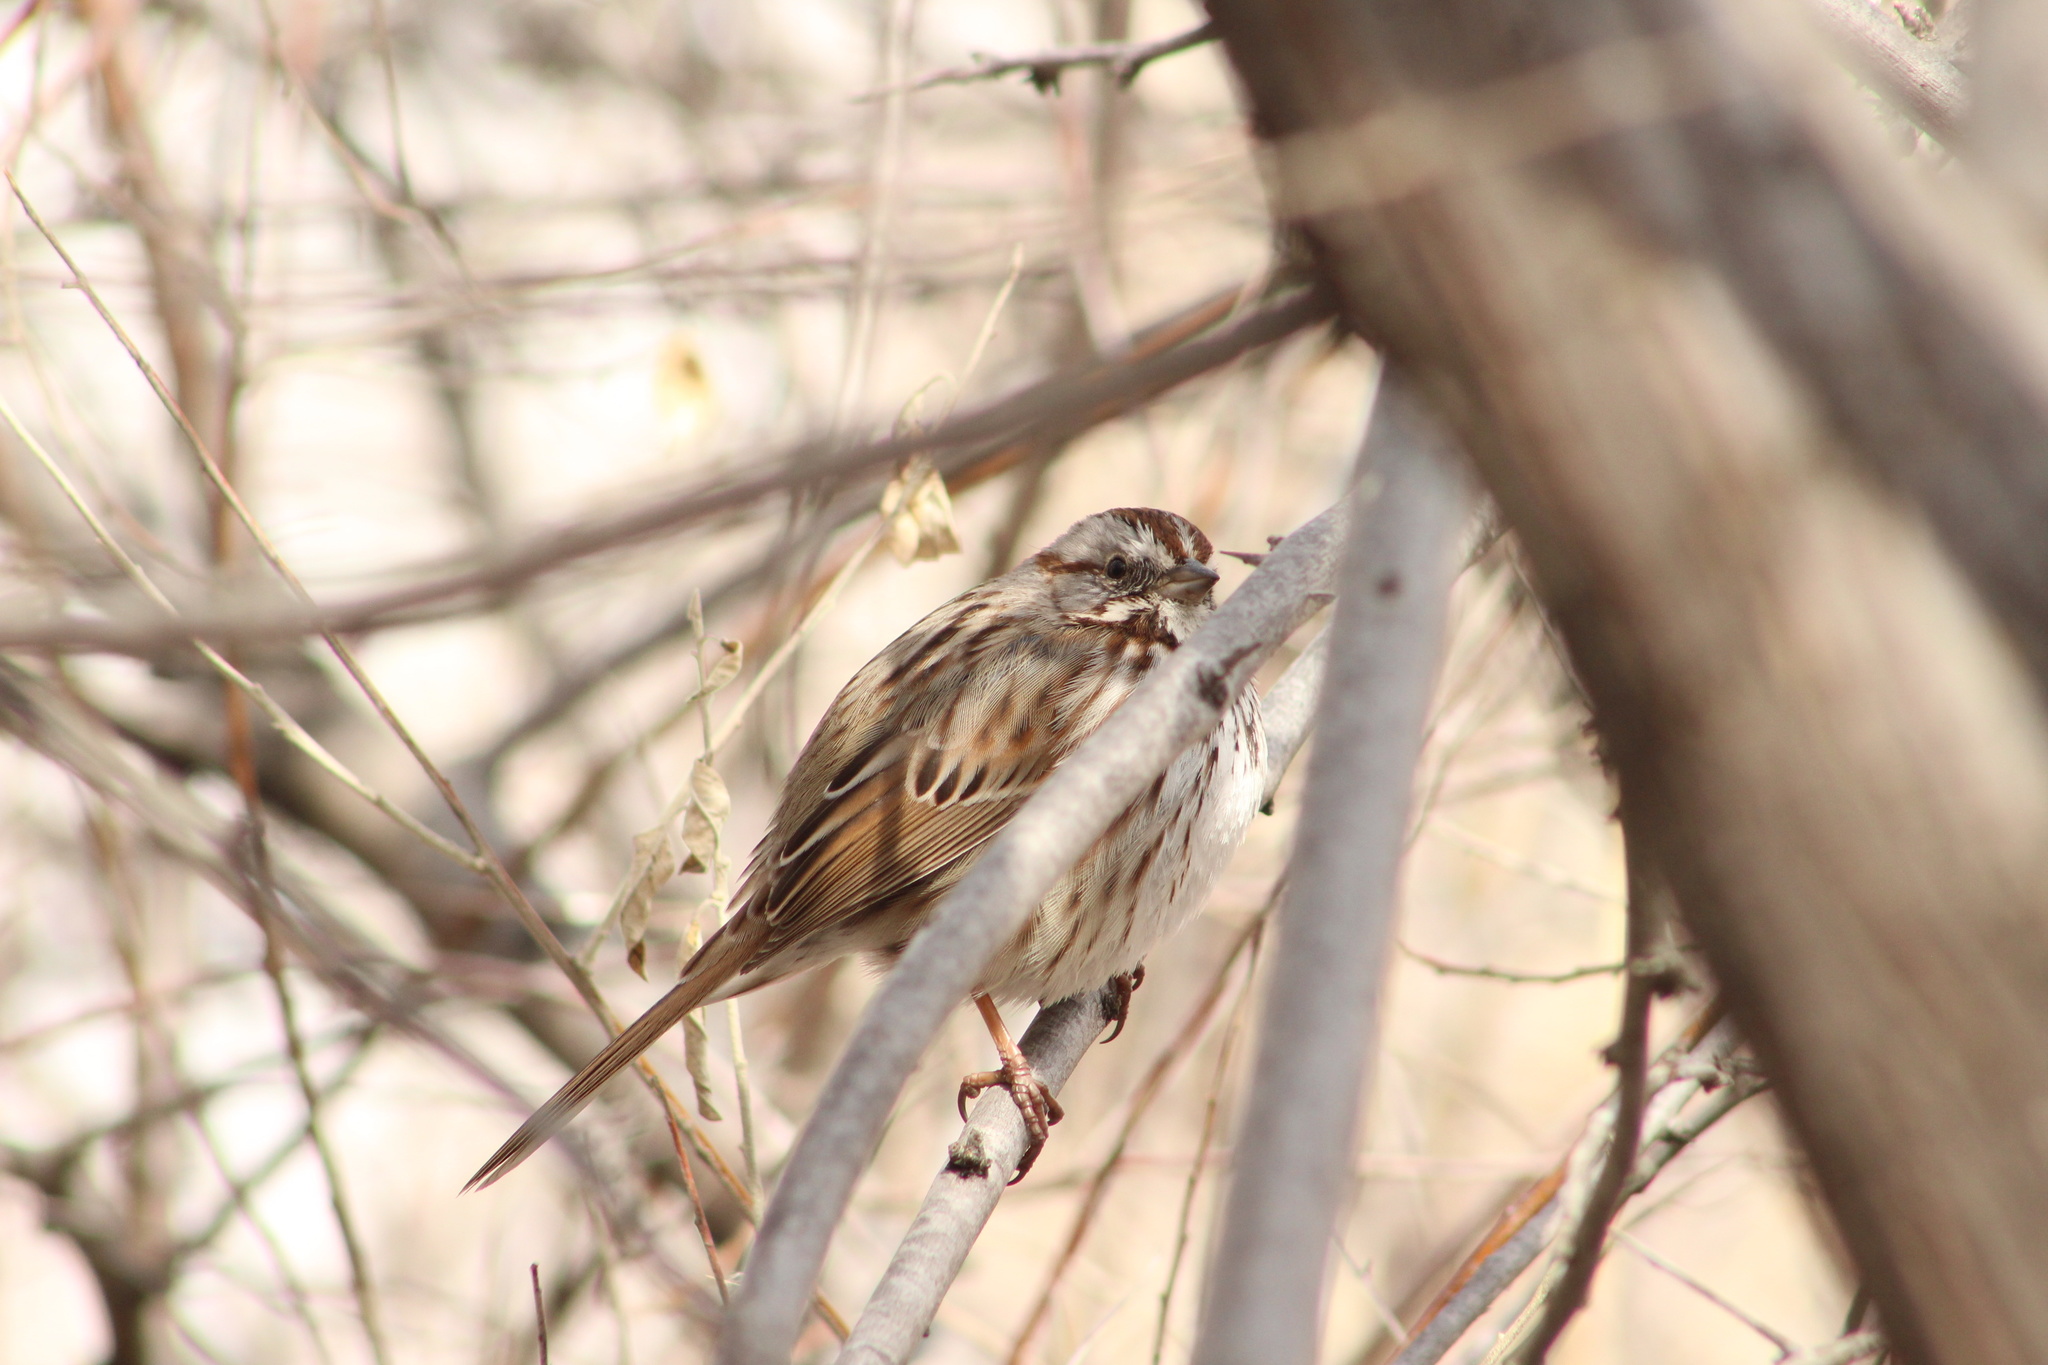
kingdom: Animalia
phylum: Chordata
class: Aves
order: Passeriformes
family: Passerellidae
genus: Melospiza
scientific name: Melospiza melodia
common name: Song sparrow
